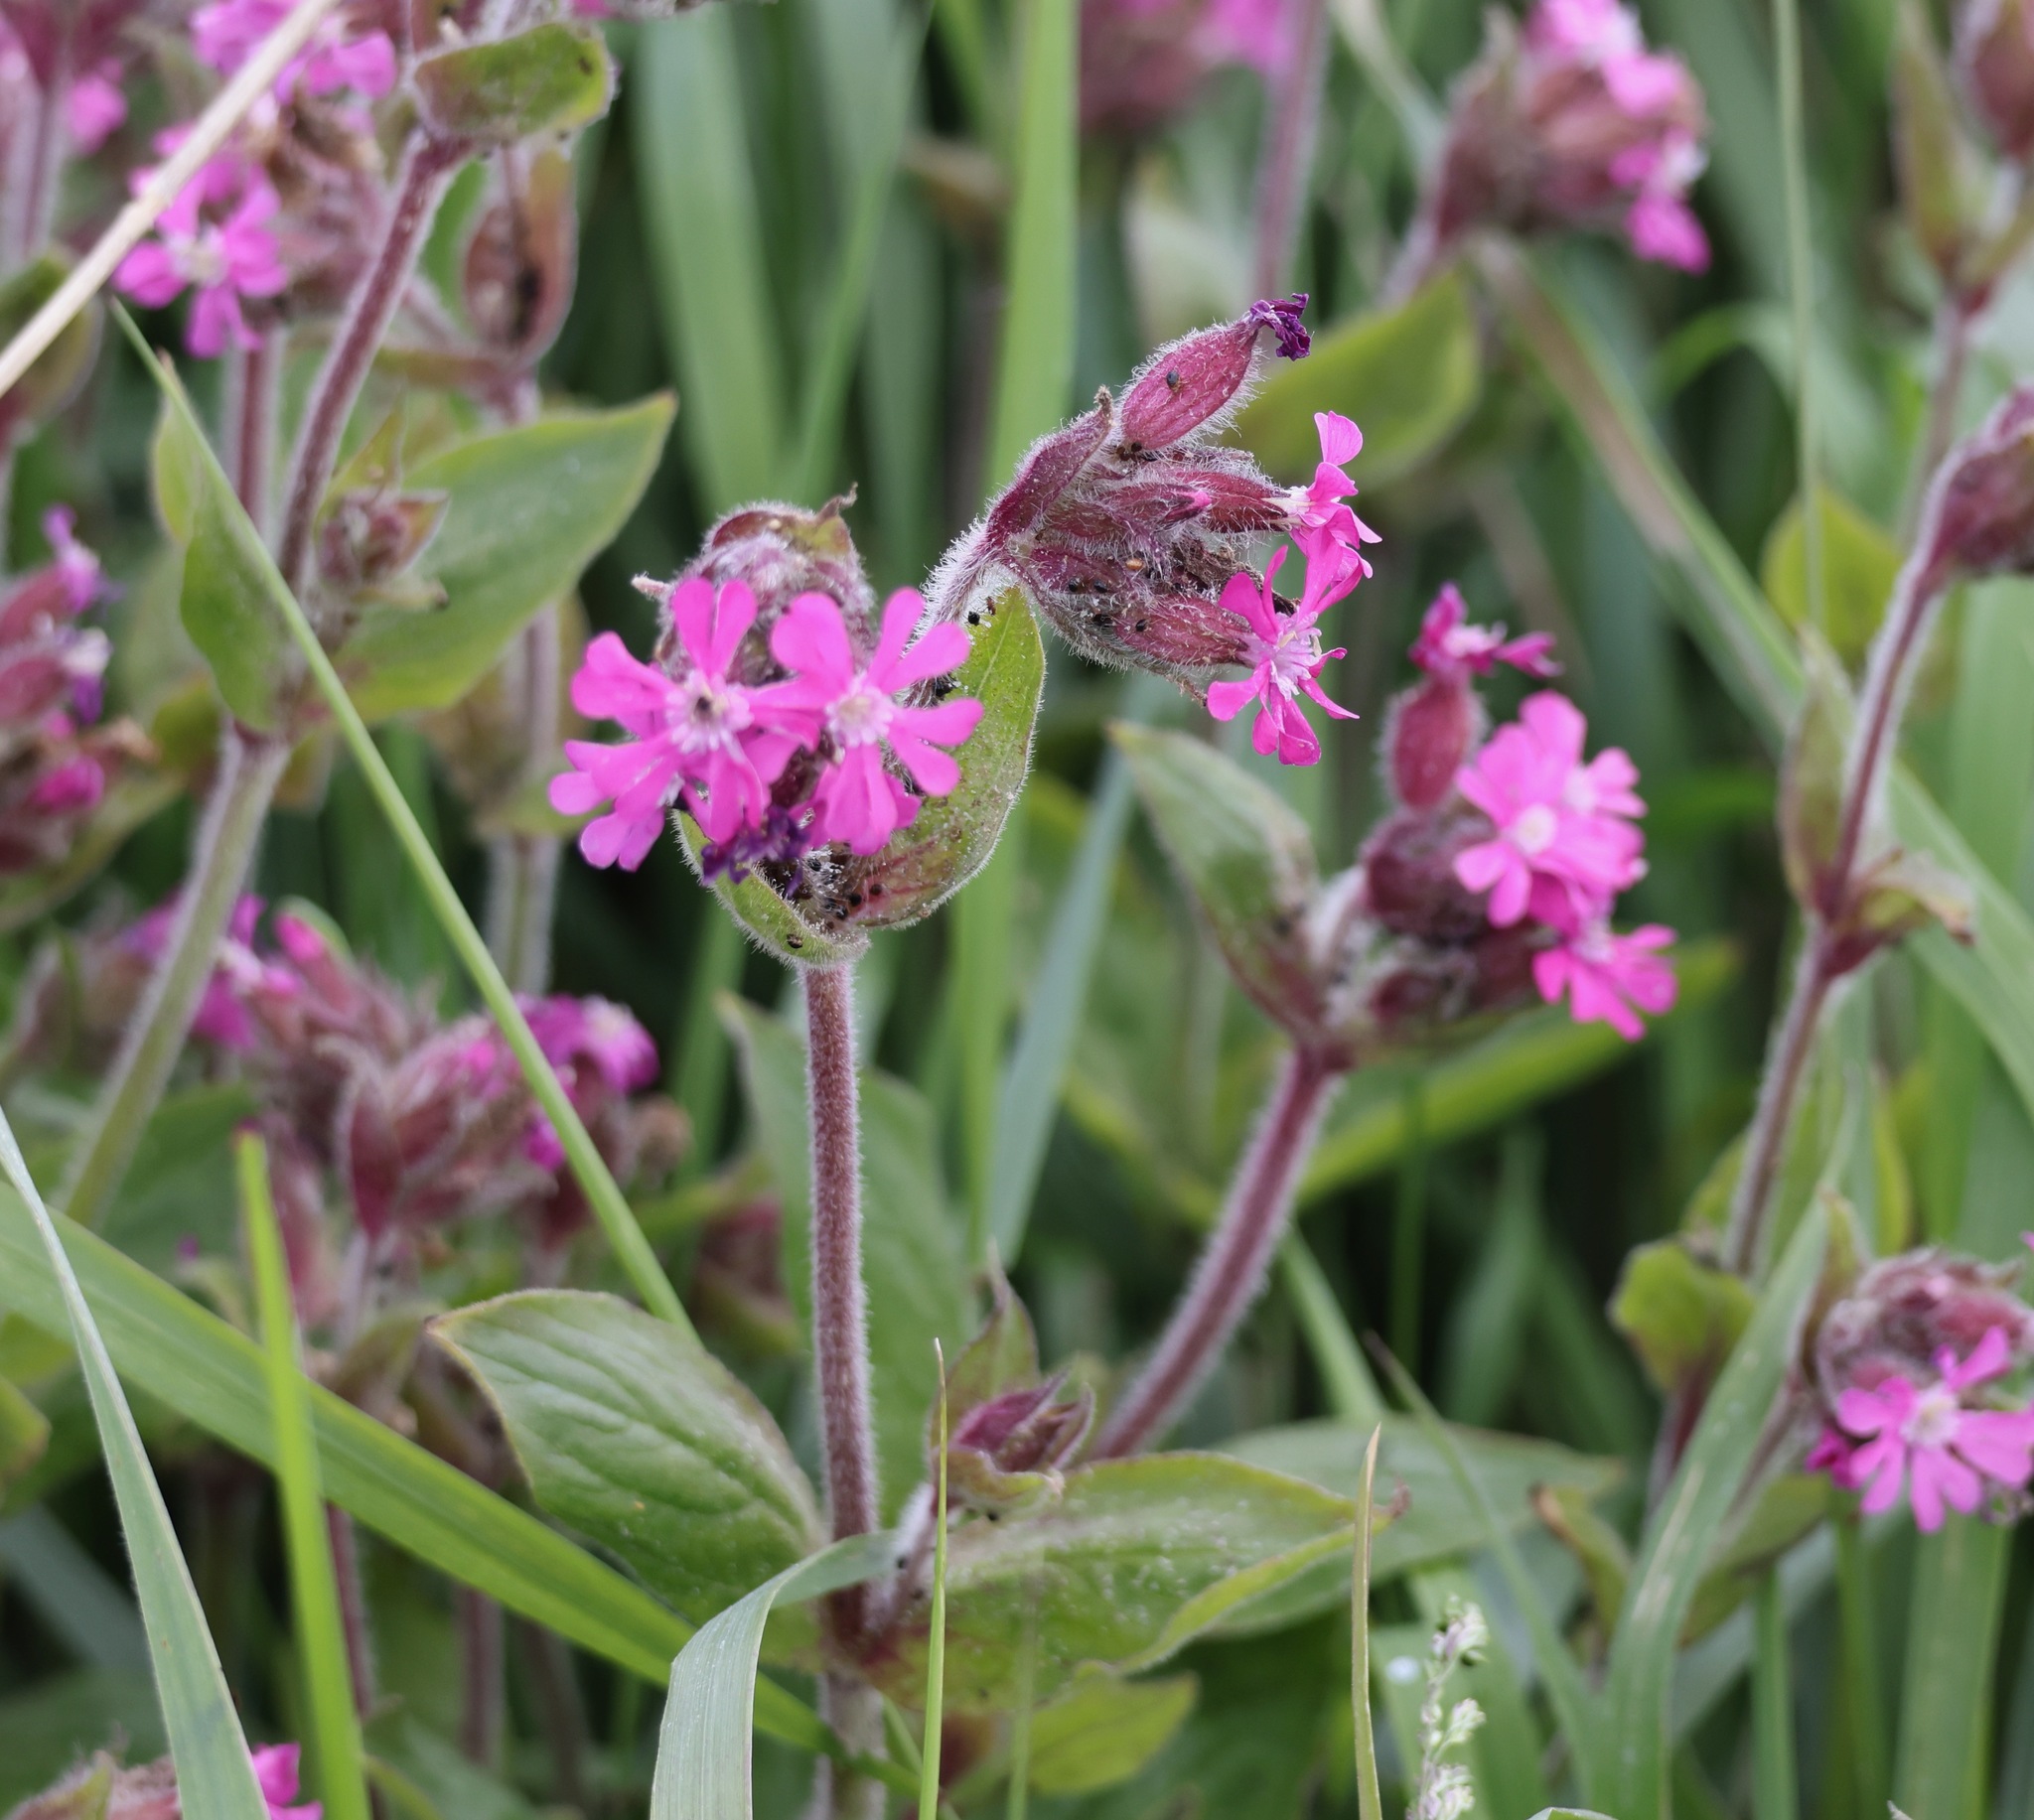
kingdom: Plantae
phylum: Tracheophyta
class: Magnoliopsida
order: Caryophyllales
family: Caryophyllaceae
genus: Silene
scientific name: Silene dioica
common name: Red campion
